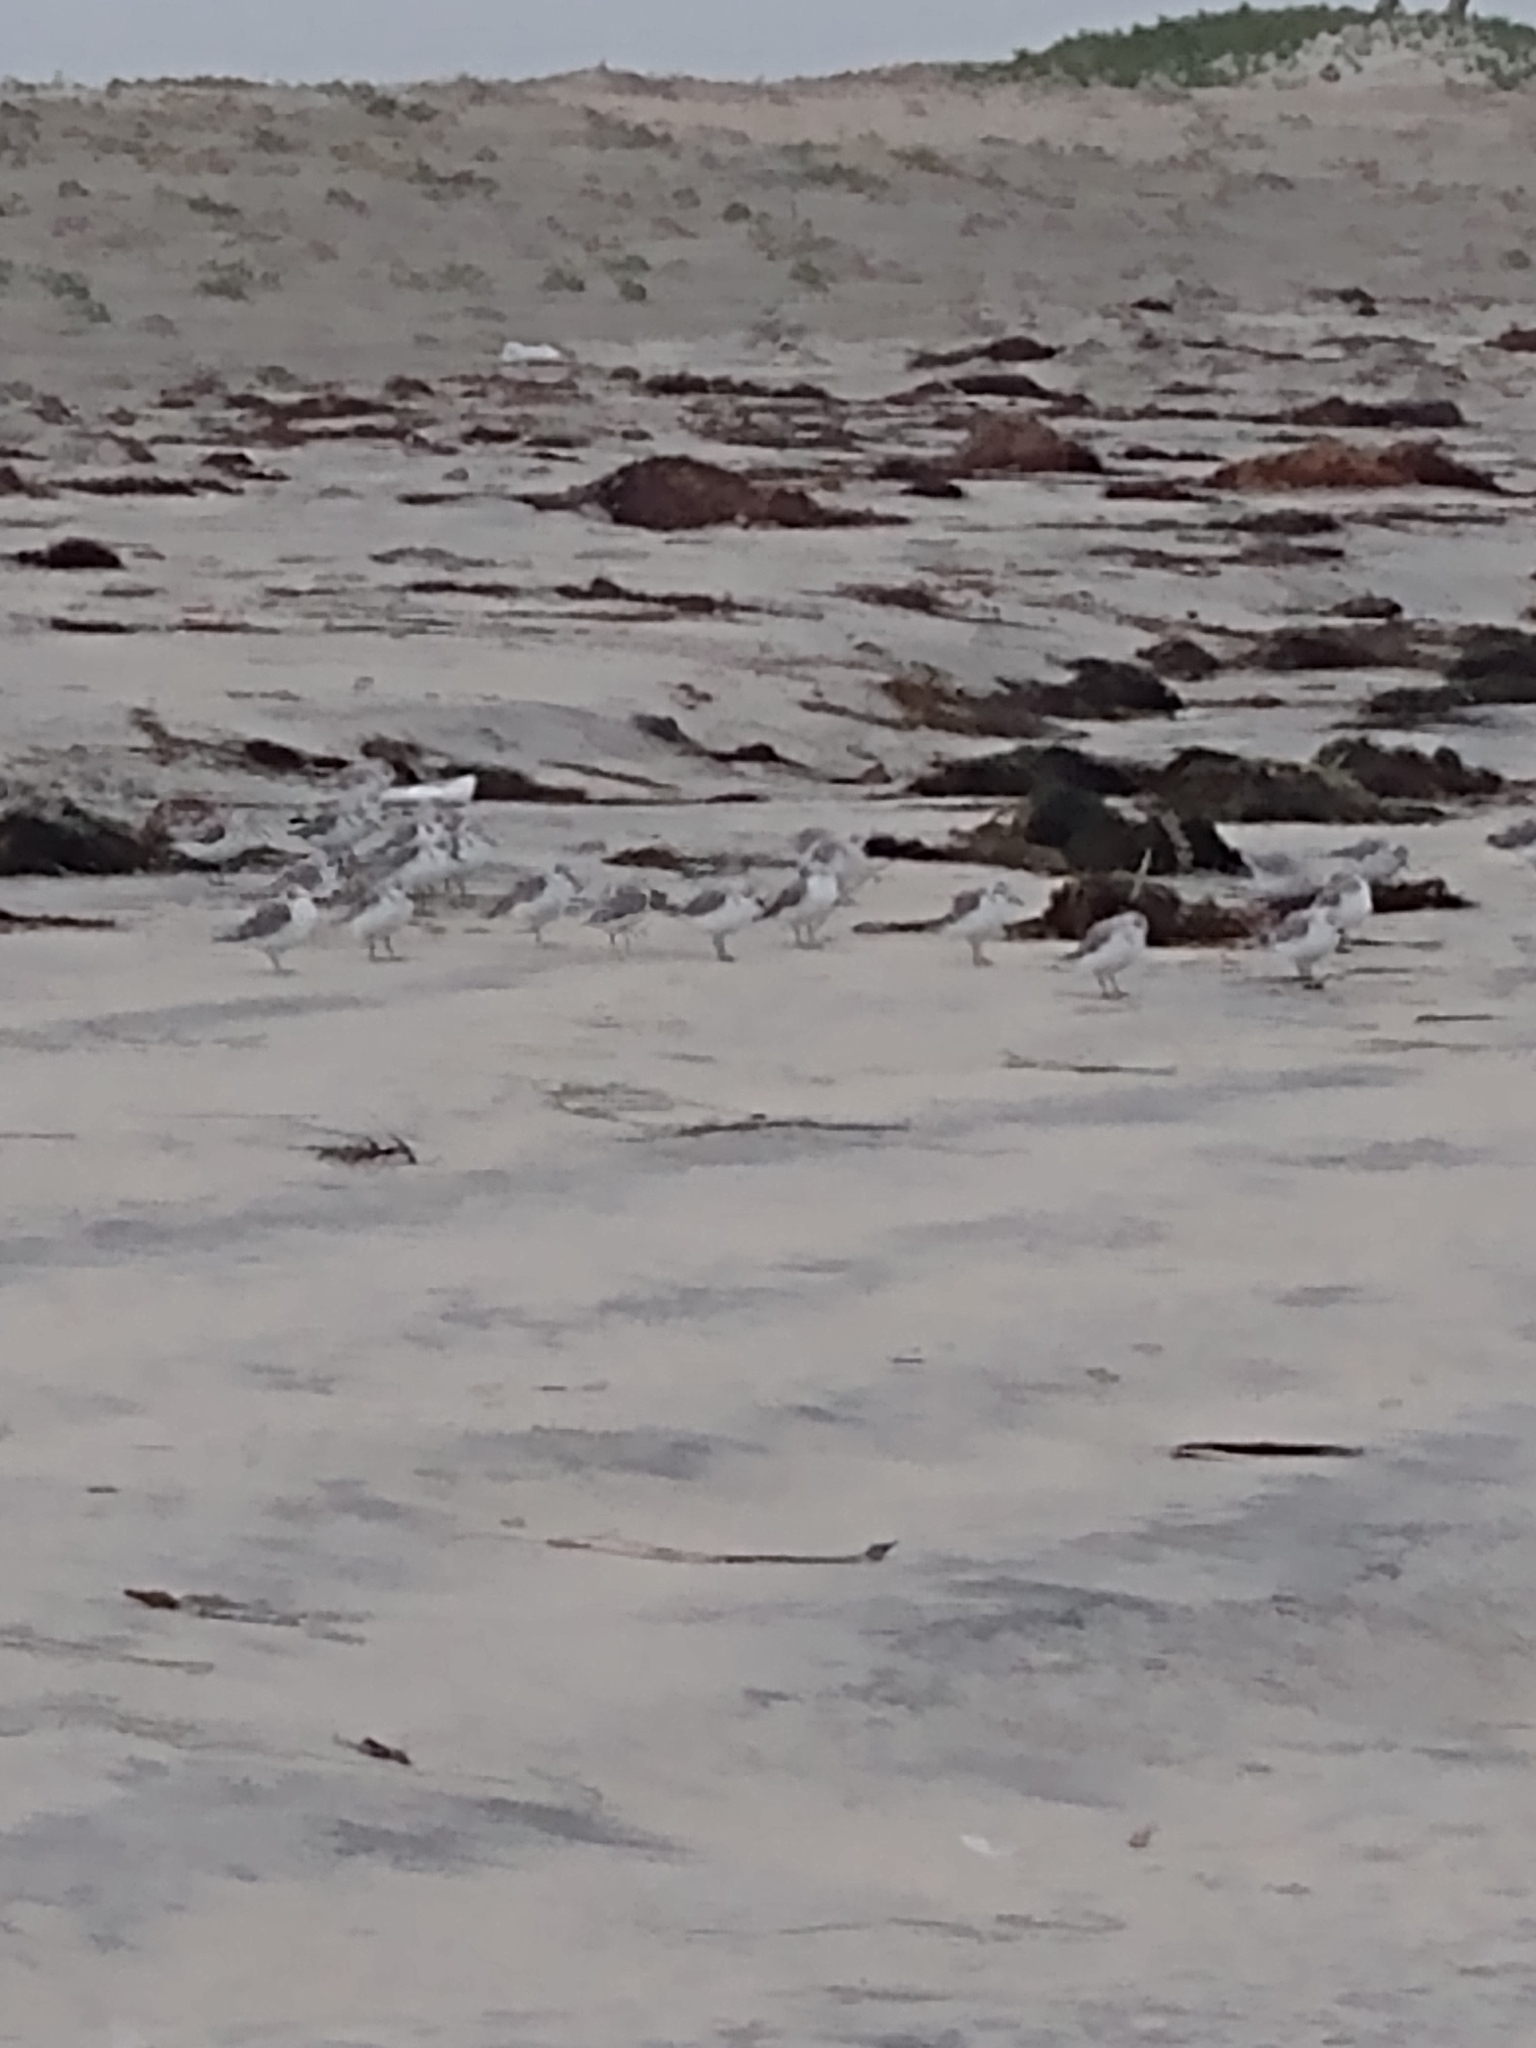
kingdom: Animalia
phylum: Chordata
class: Aves
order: Charadriiformes
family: Scolopacidae
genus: Calidris
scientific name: Calidris alba
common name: Sanderling
